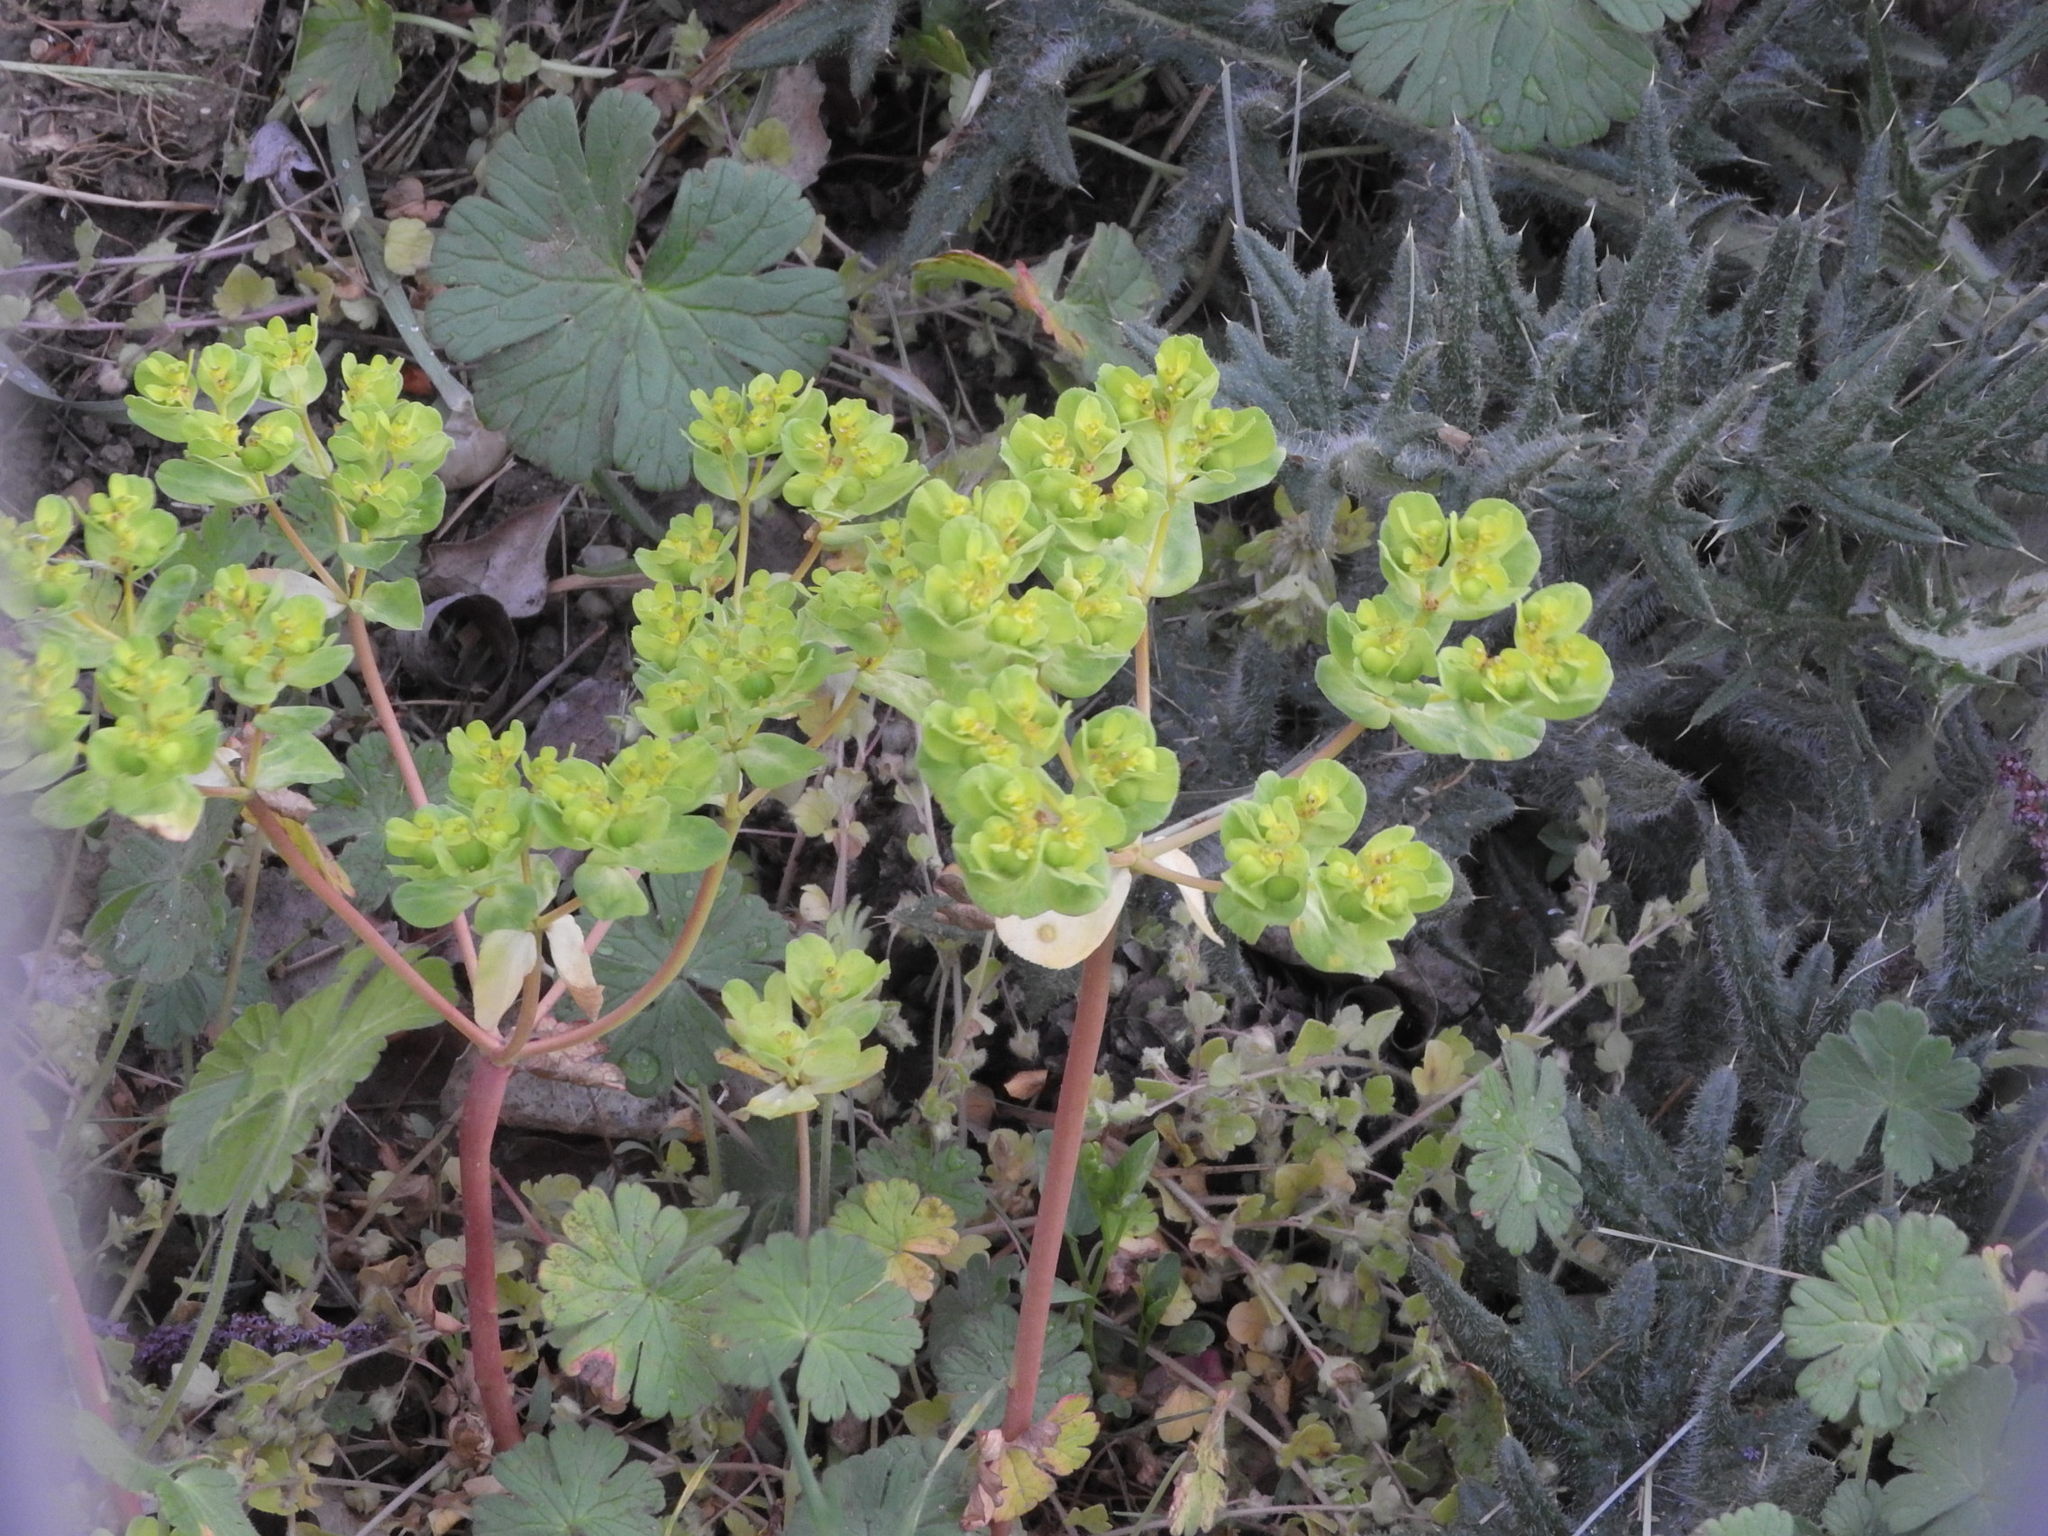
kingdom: Plantae
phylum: Tracheophyta
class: Magnoliopsida
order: Malpighiales
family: Euphorbiaceae
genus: Euphorbia
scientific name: Euphorbia helioscopia
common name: Sun spurge
